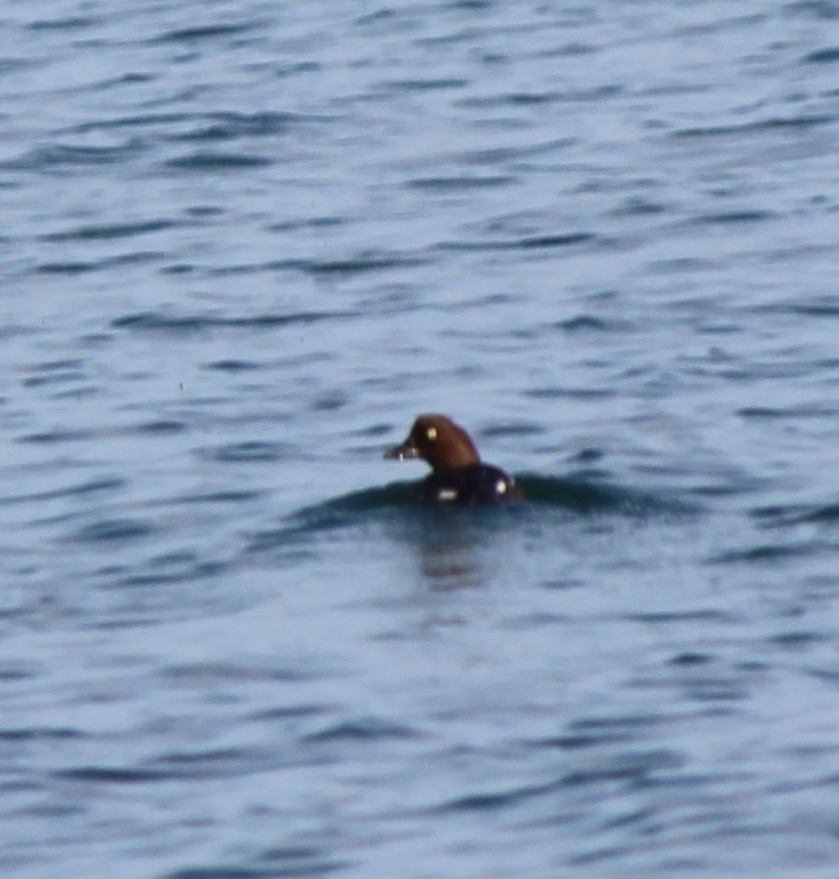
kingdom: Animalia
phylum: Chordata
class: Aves
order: Anseriformes
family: Anatidae
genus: Bucephala
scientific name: Bucephala clangula
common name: Common goldeneye
